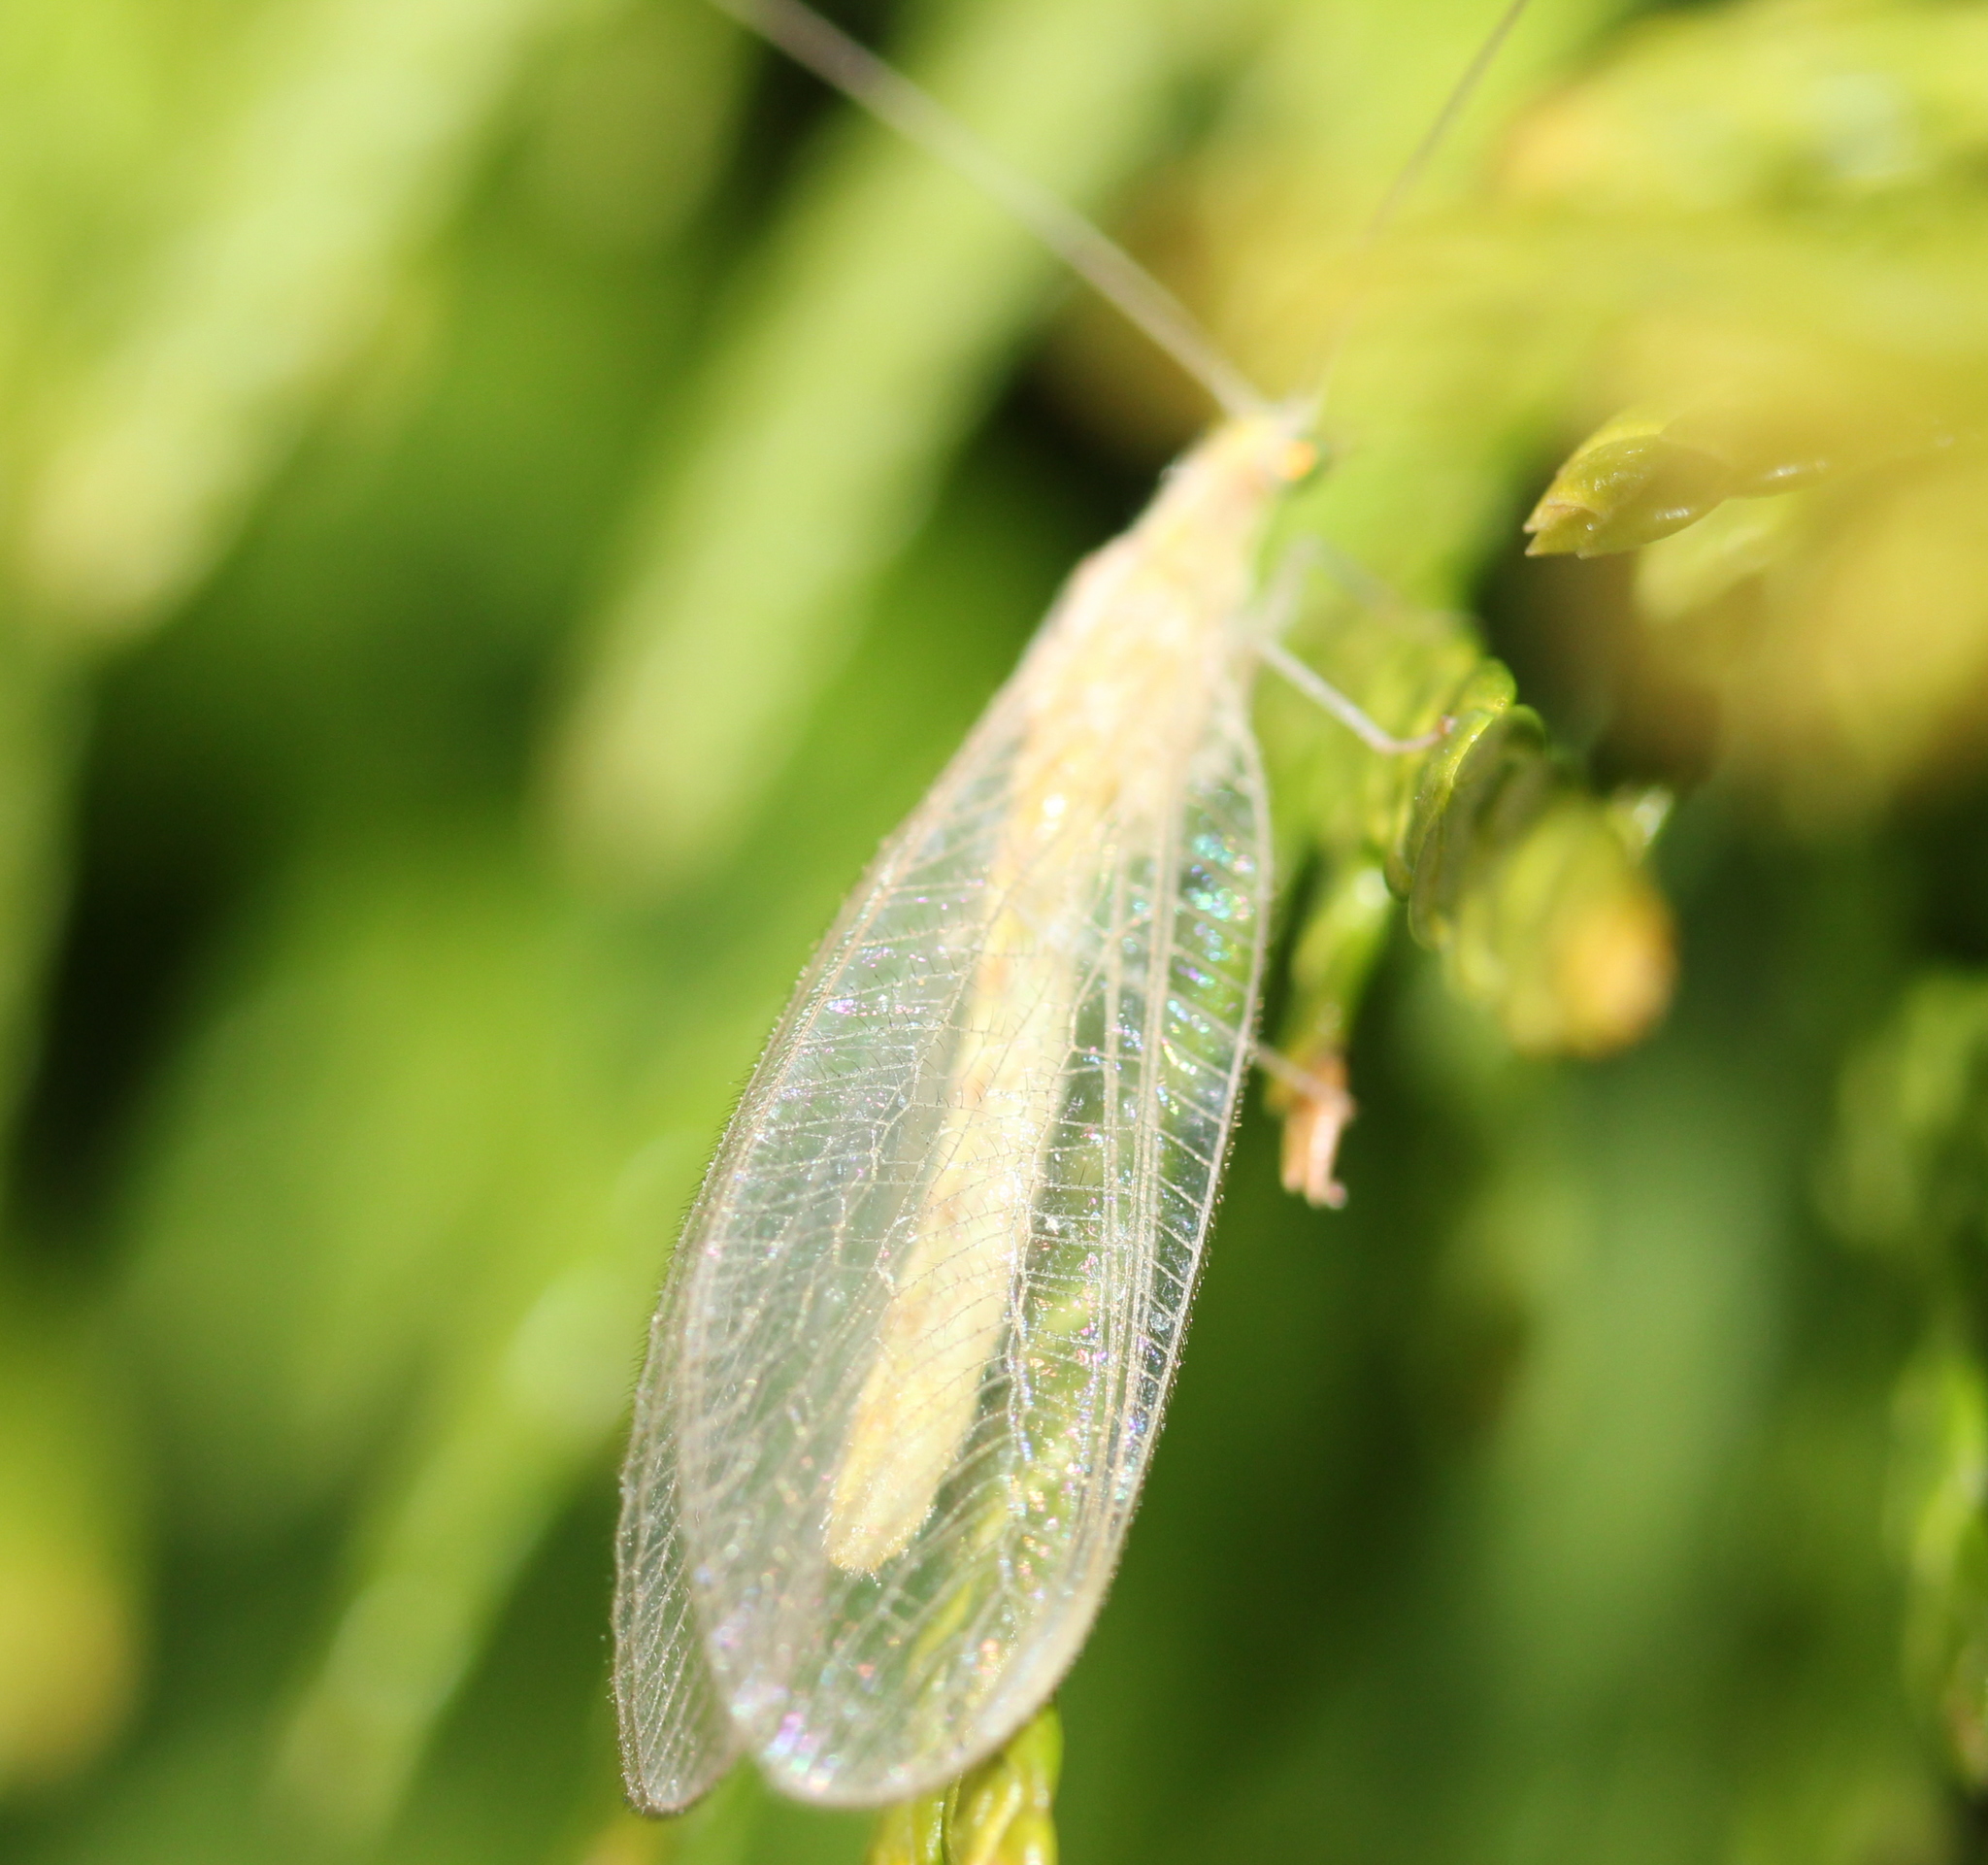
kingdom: Animalia
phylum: Arthropoda
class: Insecta
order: Neuroptera
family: Chrysopidae
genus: Chrysoperla
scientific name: Chrysoperla rufilabris
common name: Red-lipped green lacewing
